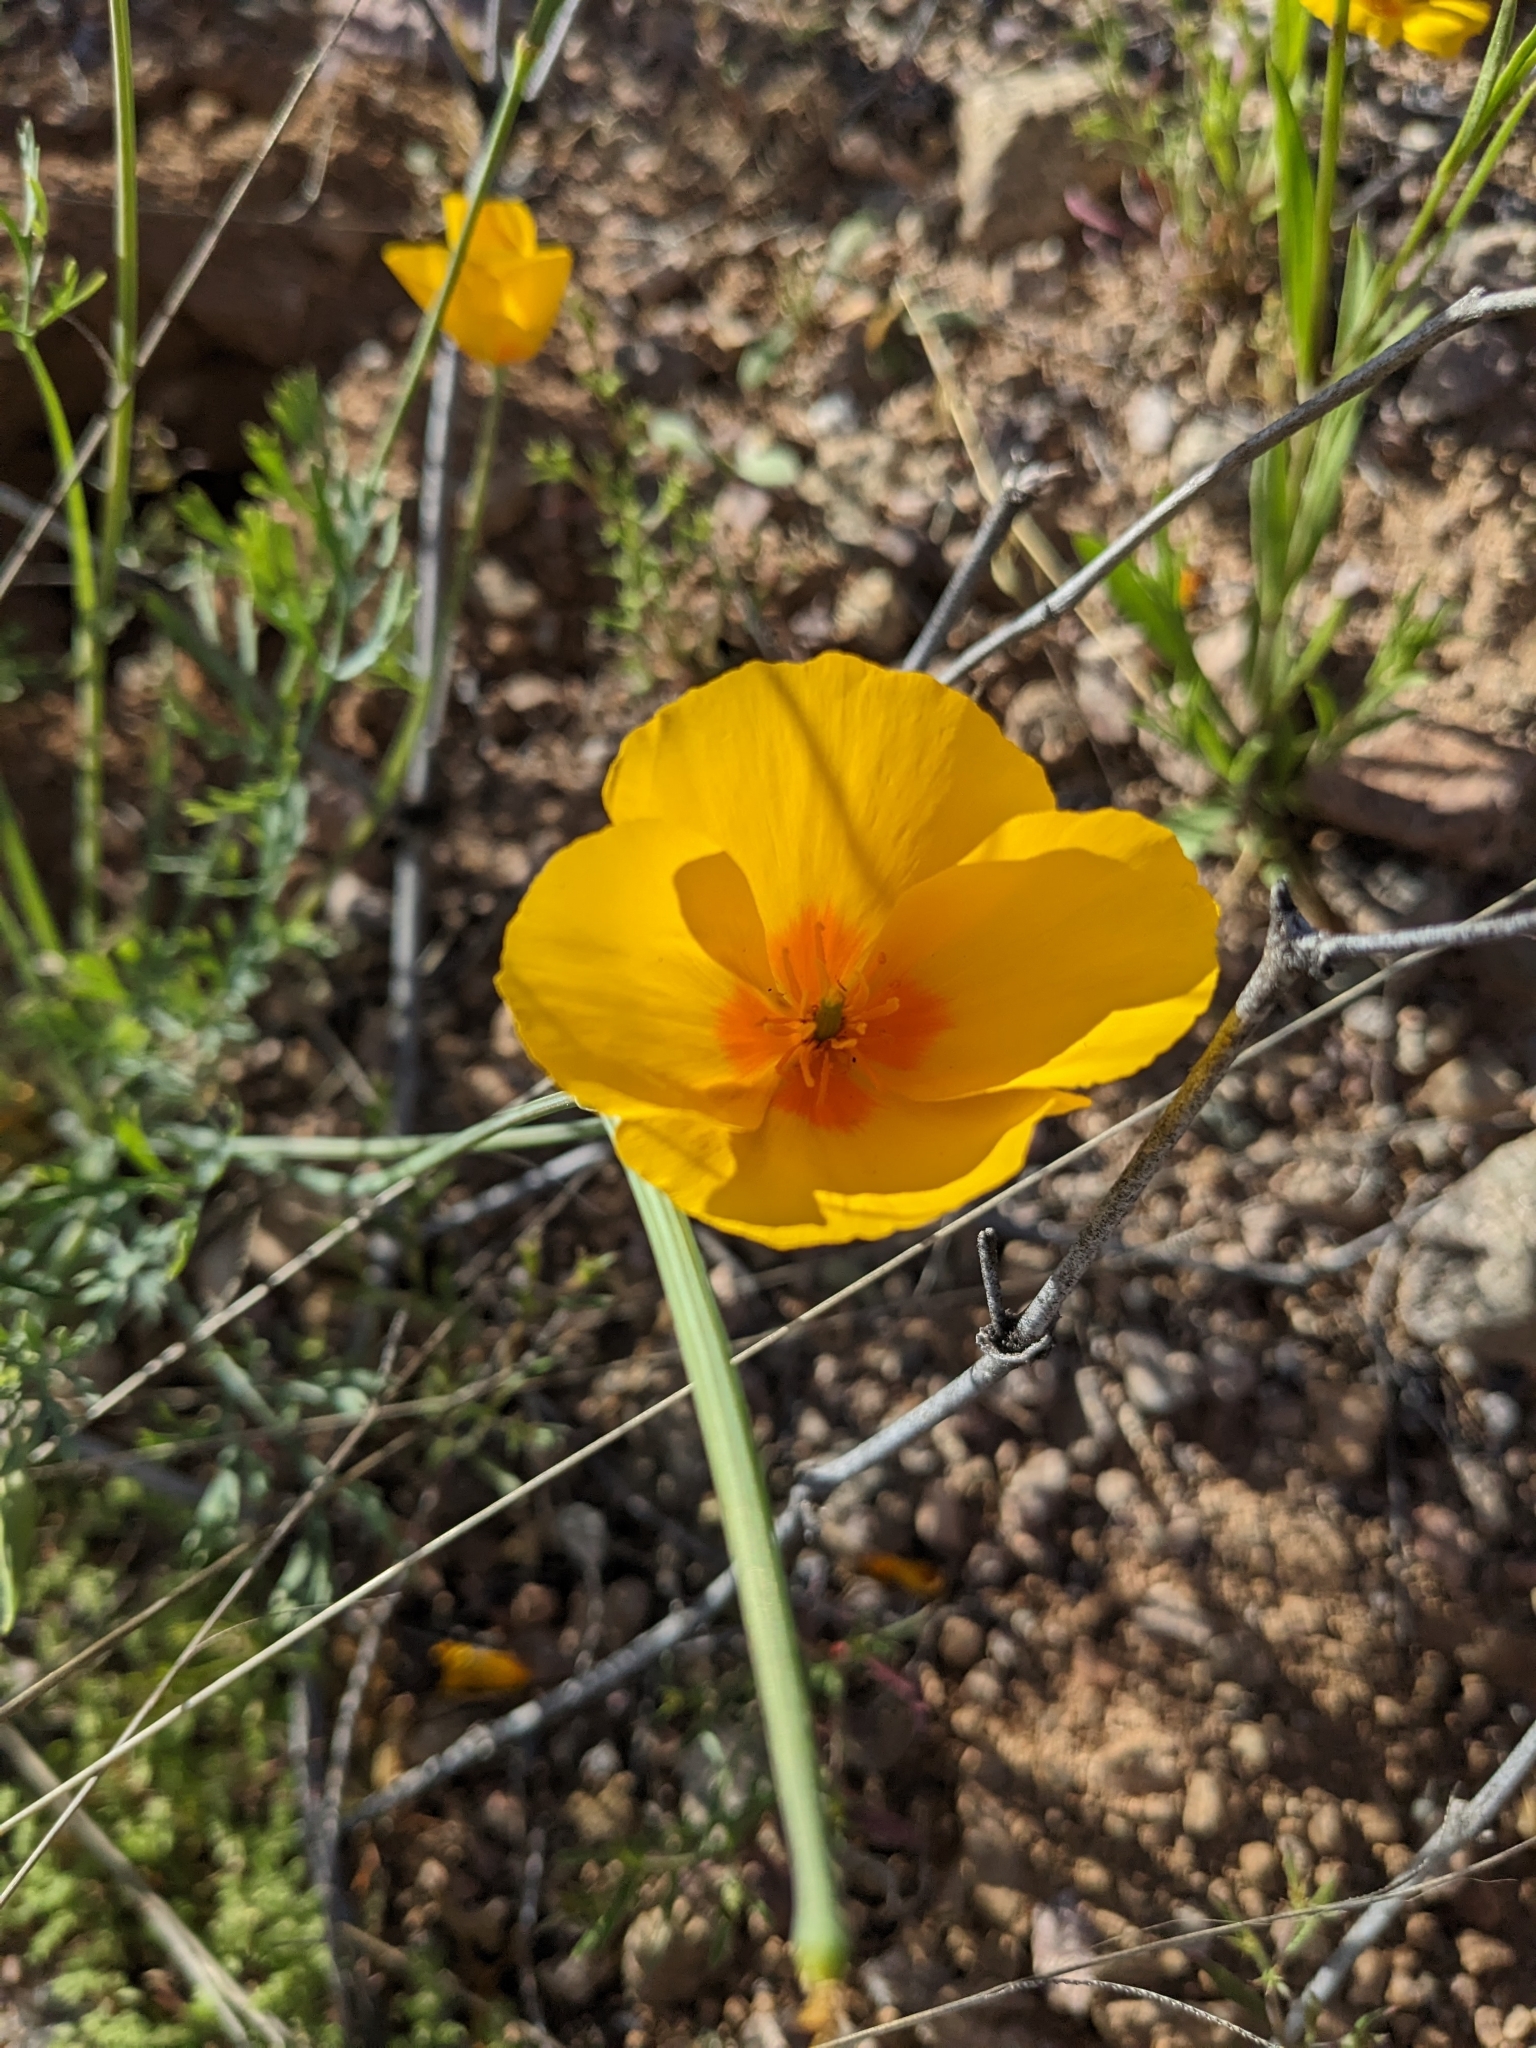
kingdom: Plantae
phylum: Tracheophyta
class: Magnoliopsida
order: Ranunculales
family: Papaveraceae
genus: Eschscholzia
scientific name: Eschscholzia californica
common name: California poppy
